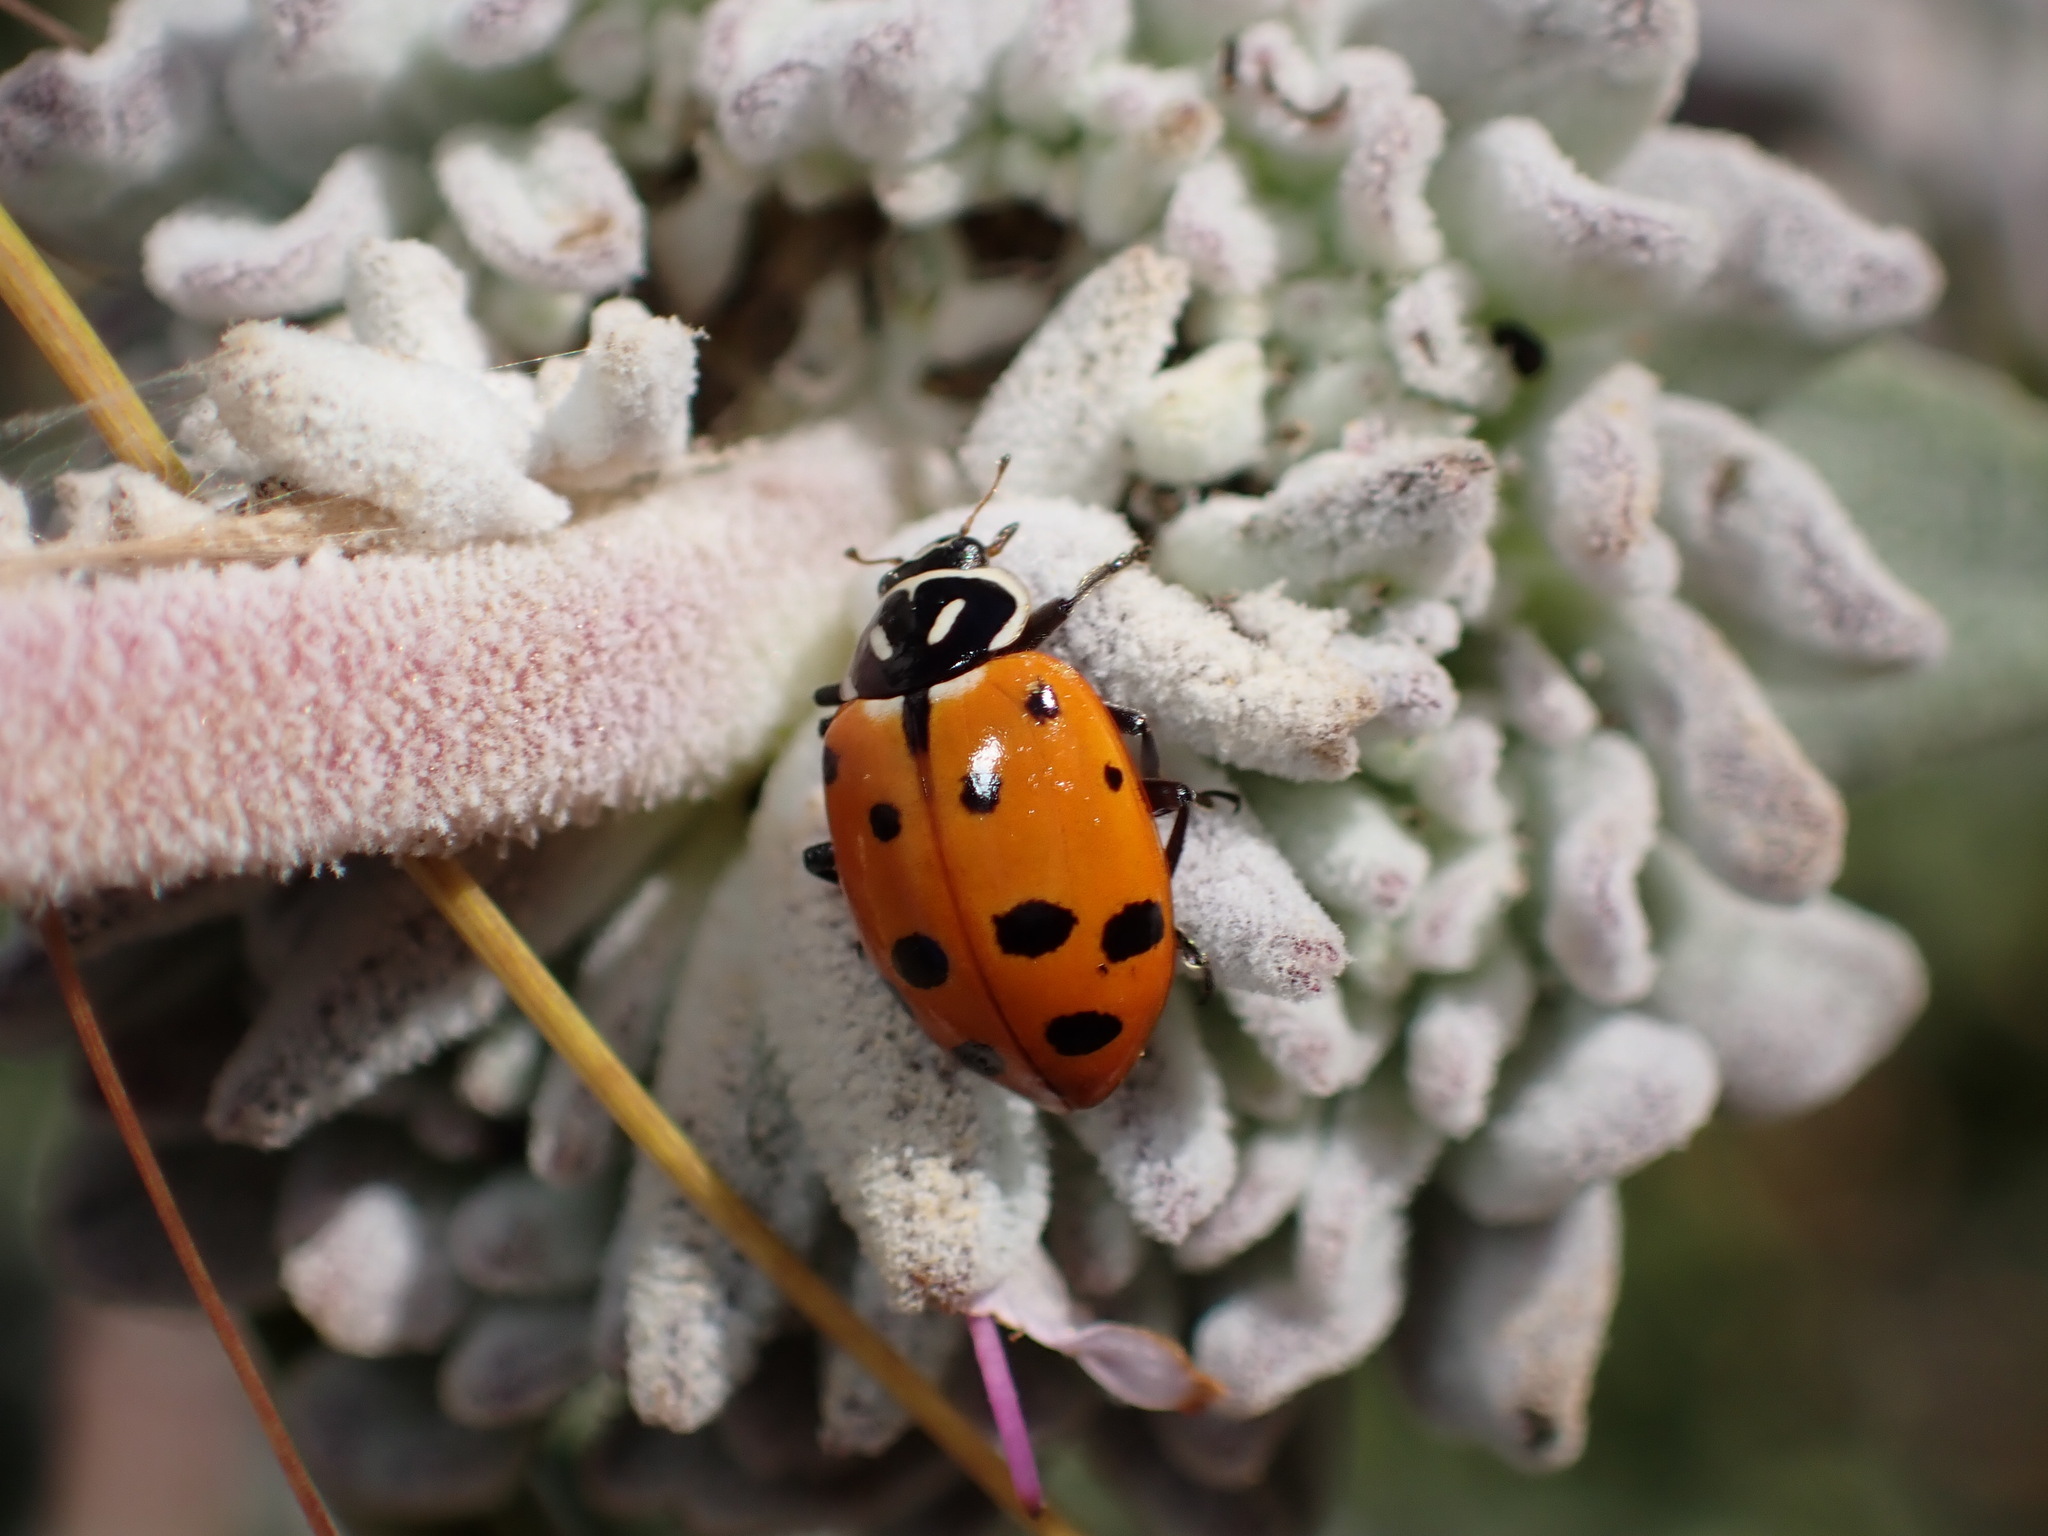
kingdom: Animalia
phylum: Arthropoda
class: Insecta
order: Coleoptera
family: Coccinellidae
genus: Hippodamia
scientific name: Hippodamia convergens
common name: Convergent lady beetle
